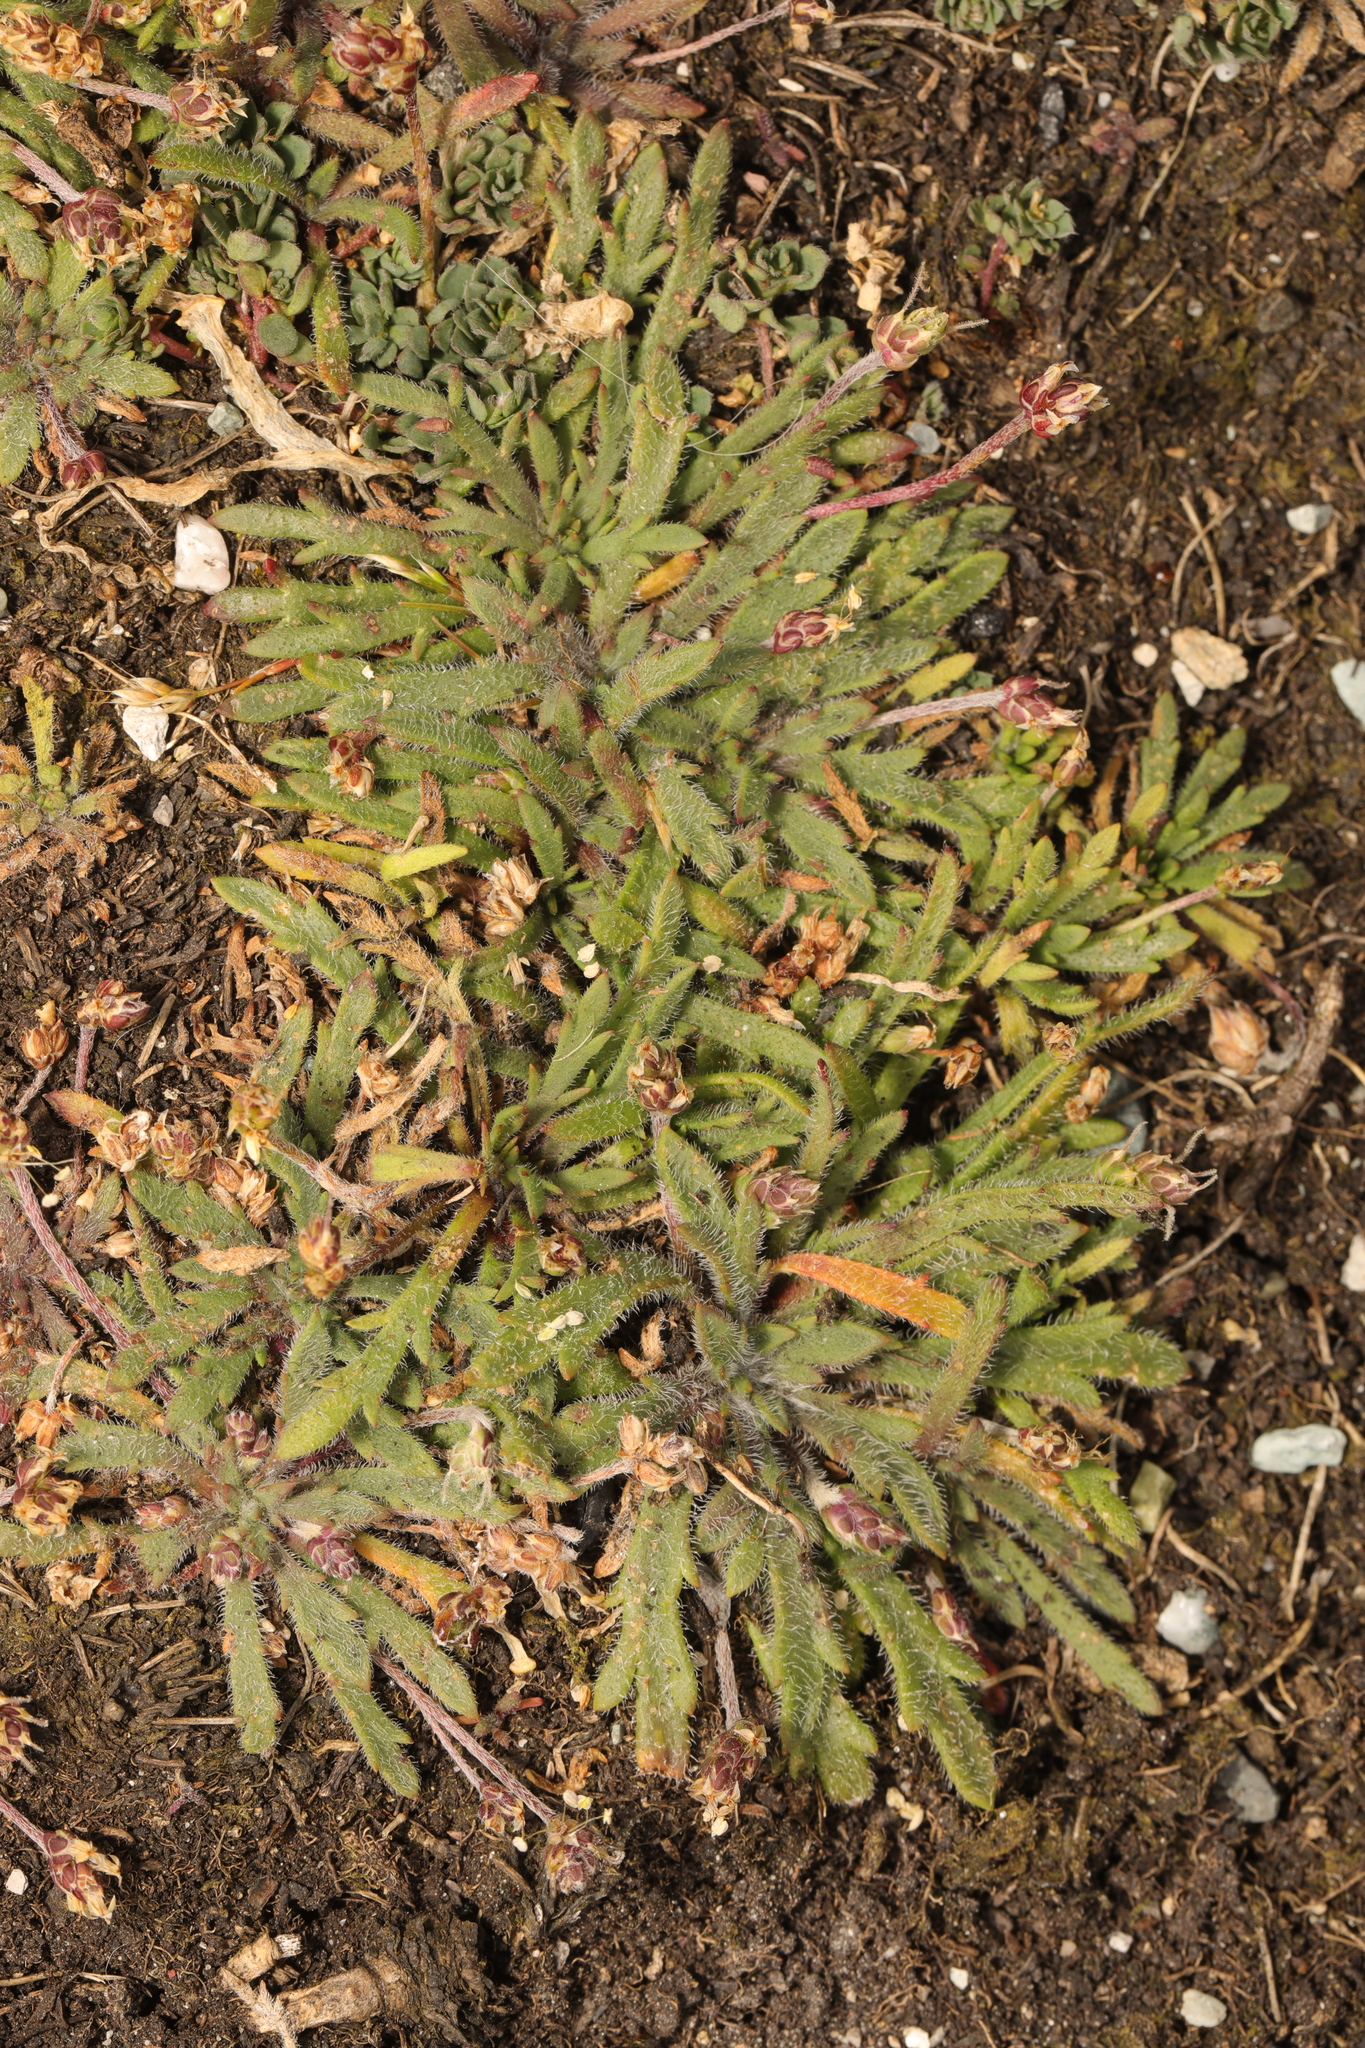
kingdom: Plantae
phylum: Tracheophyta
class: Magnoliopsida
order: Lamiales
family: Plantaginaceae
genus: Plantago
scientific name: Plantago coronopus
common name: Buck's-horn plantain
